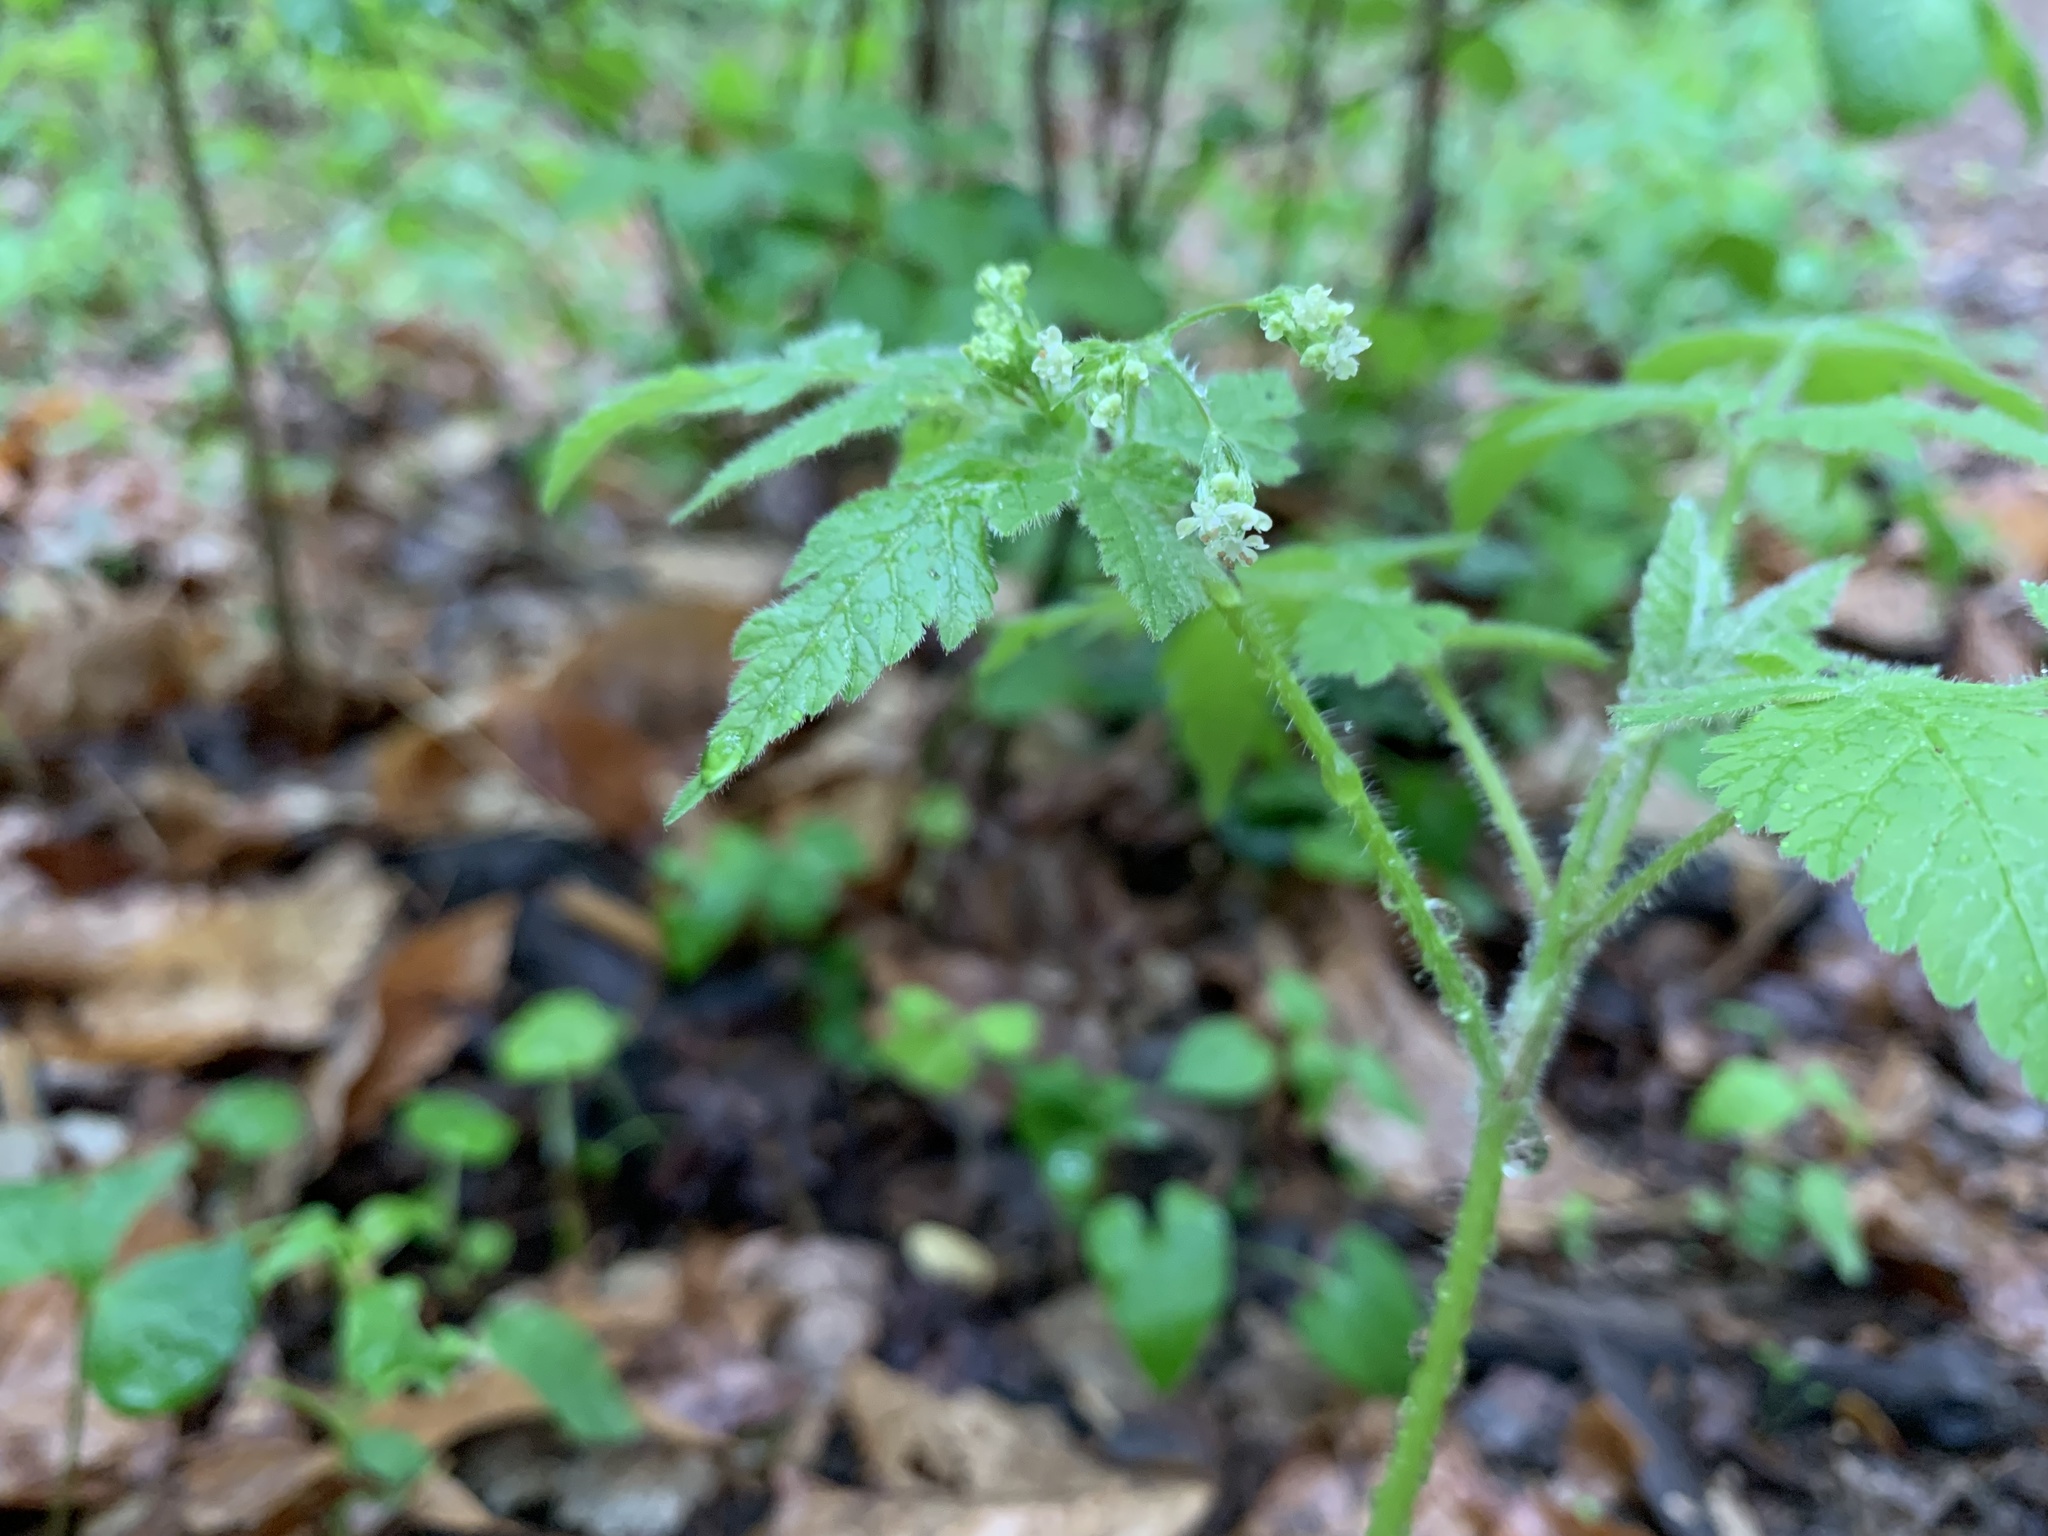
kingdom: Plantae
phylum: Tracheophyta
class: Magnoliopsida
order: Apiales
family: Apiaceae
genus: Osmorhiza
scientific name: Osmorhiza claytonii
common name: Hairy sweet cicely
